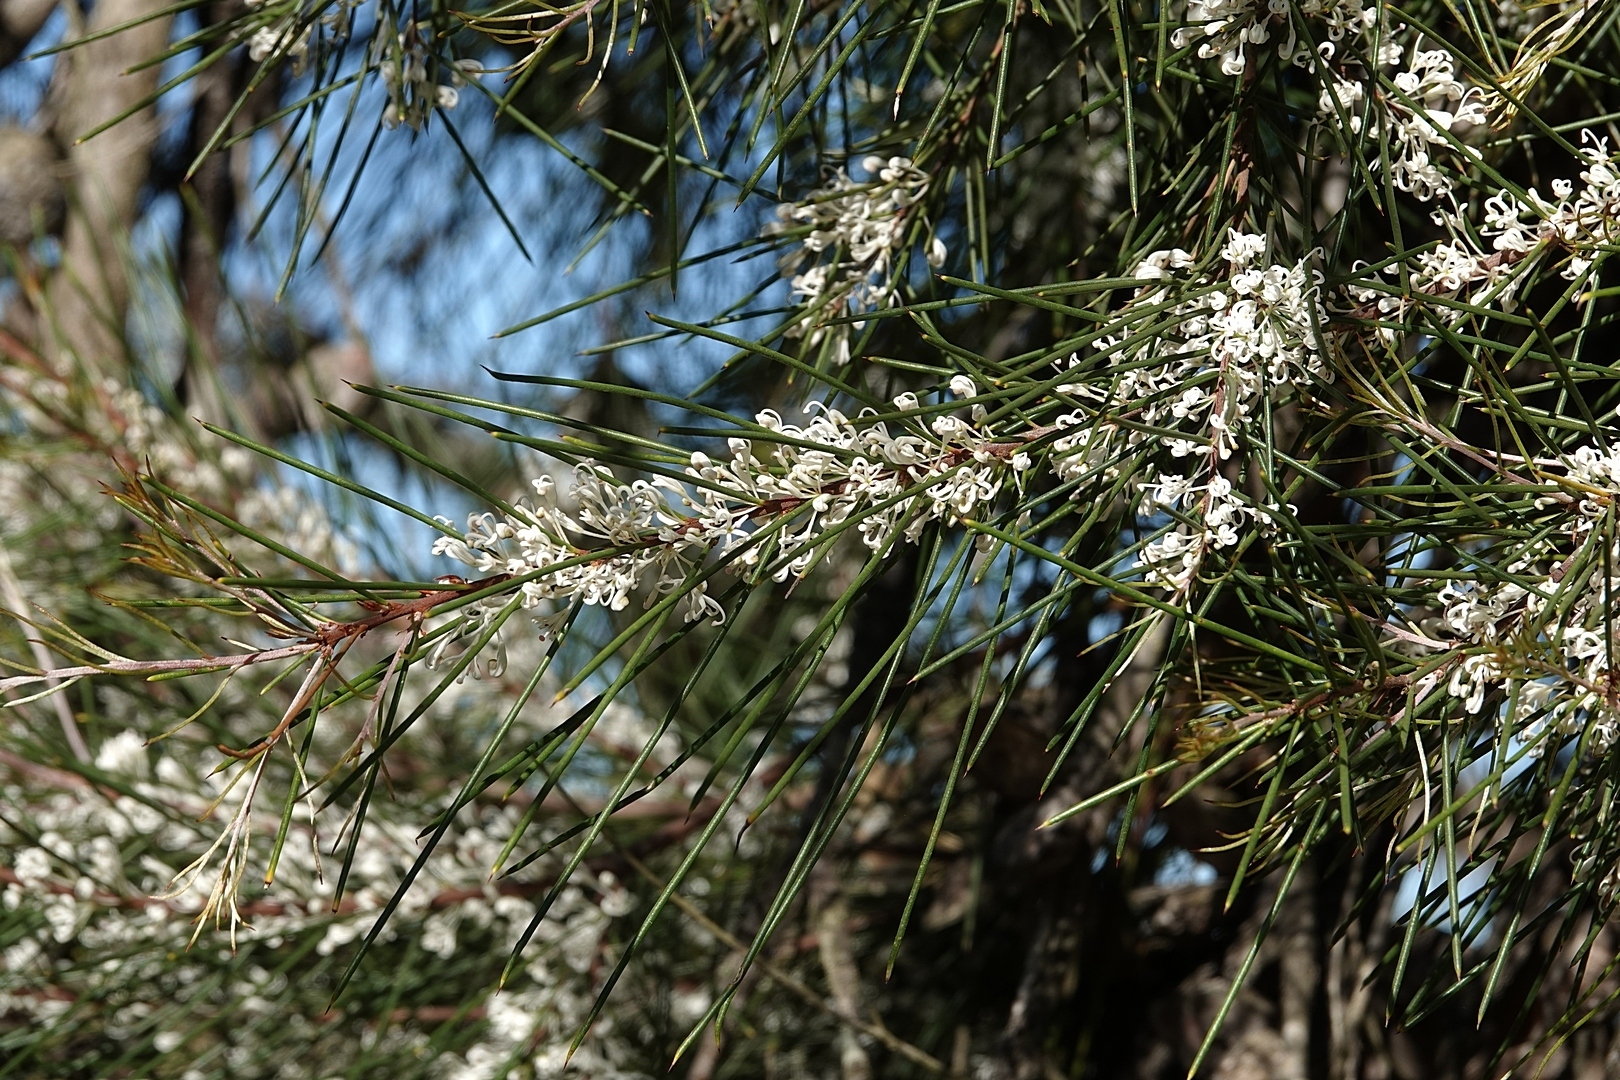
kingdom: Plantae
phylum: Tracheophyta
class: Magnoliopsida
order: Proteales
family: Proteaceae
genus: Hakea
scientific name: Hakea macraeana
